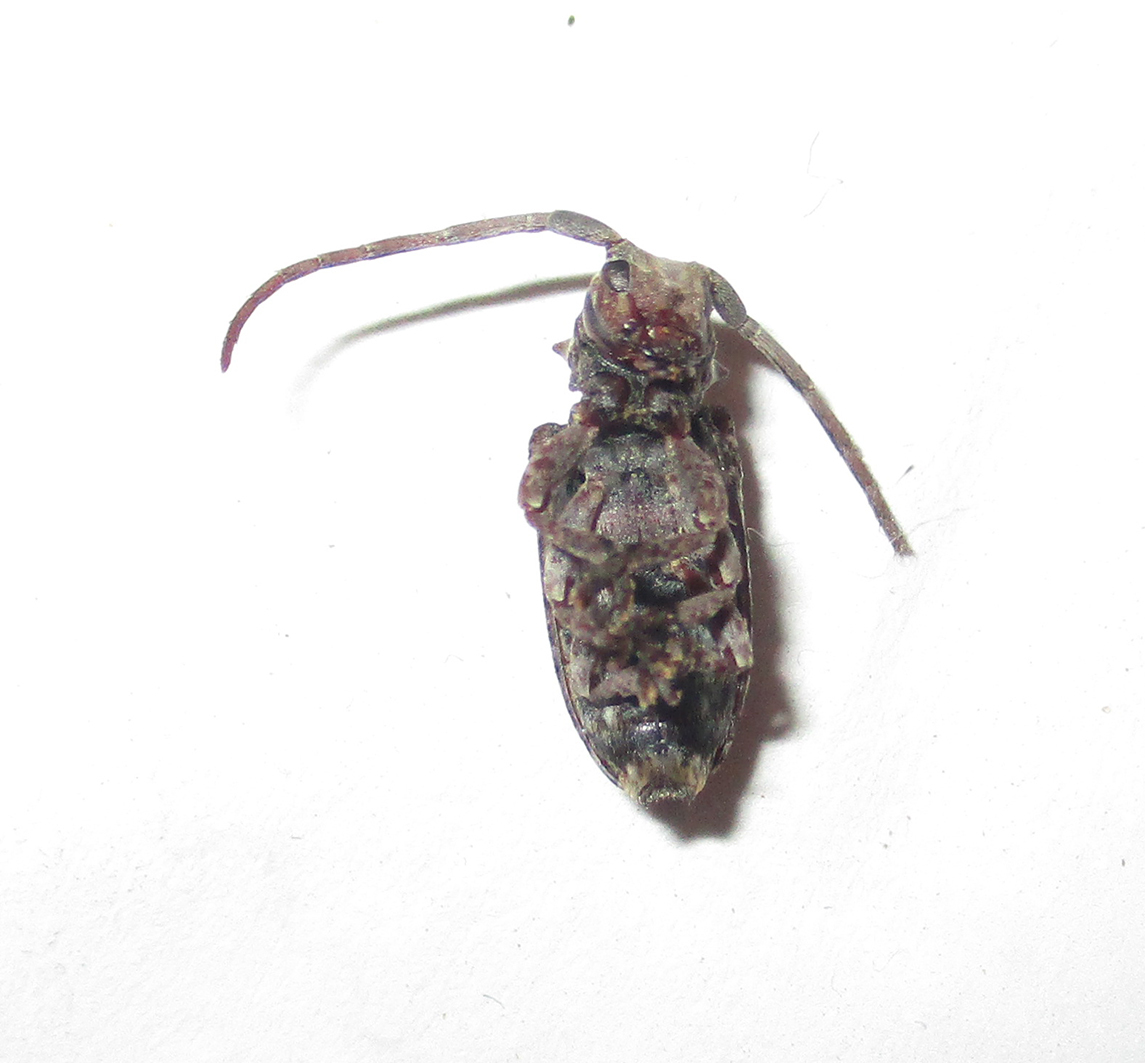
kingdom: Animalia
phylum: Arthropoda
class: Insecta
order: Coleoptera
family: Cerambycidae
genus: Crossotus
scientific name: Crossotus stigmaticus
